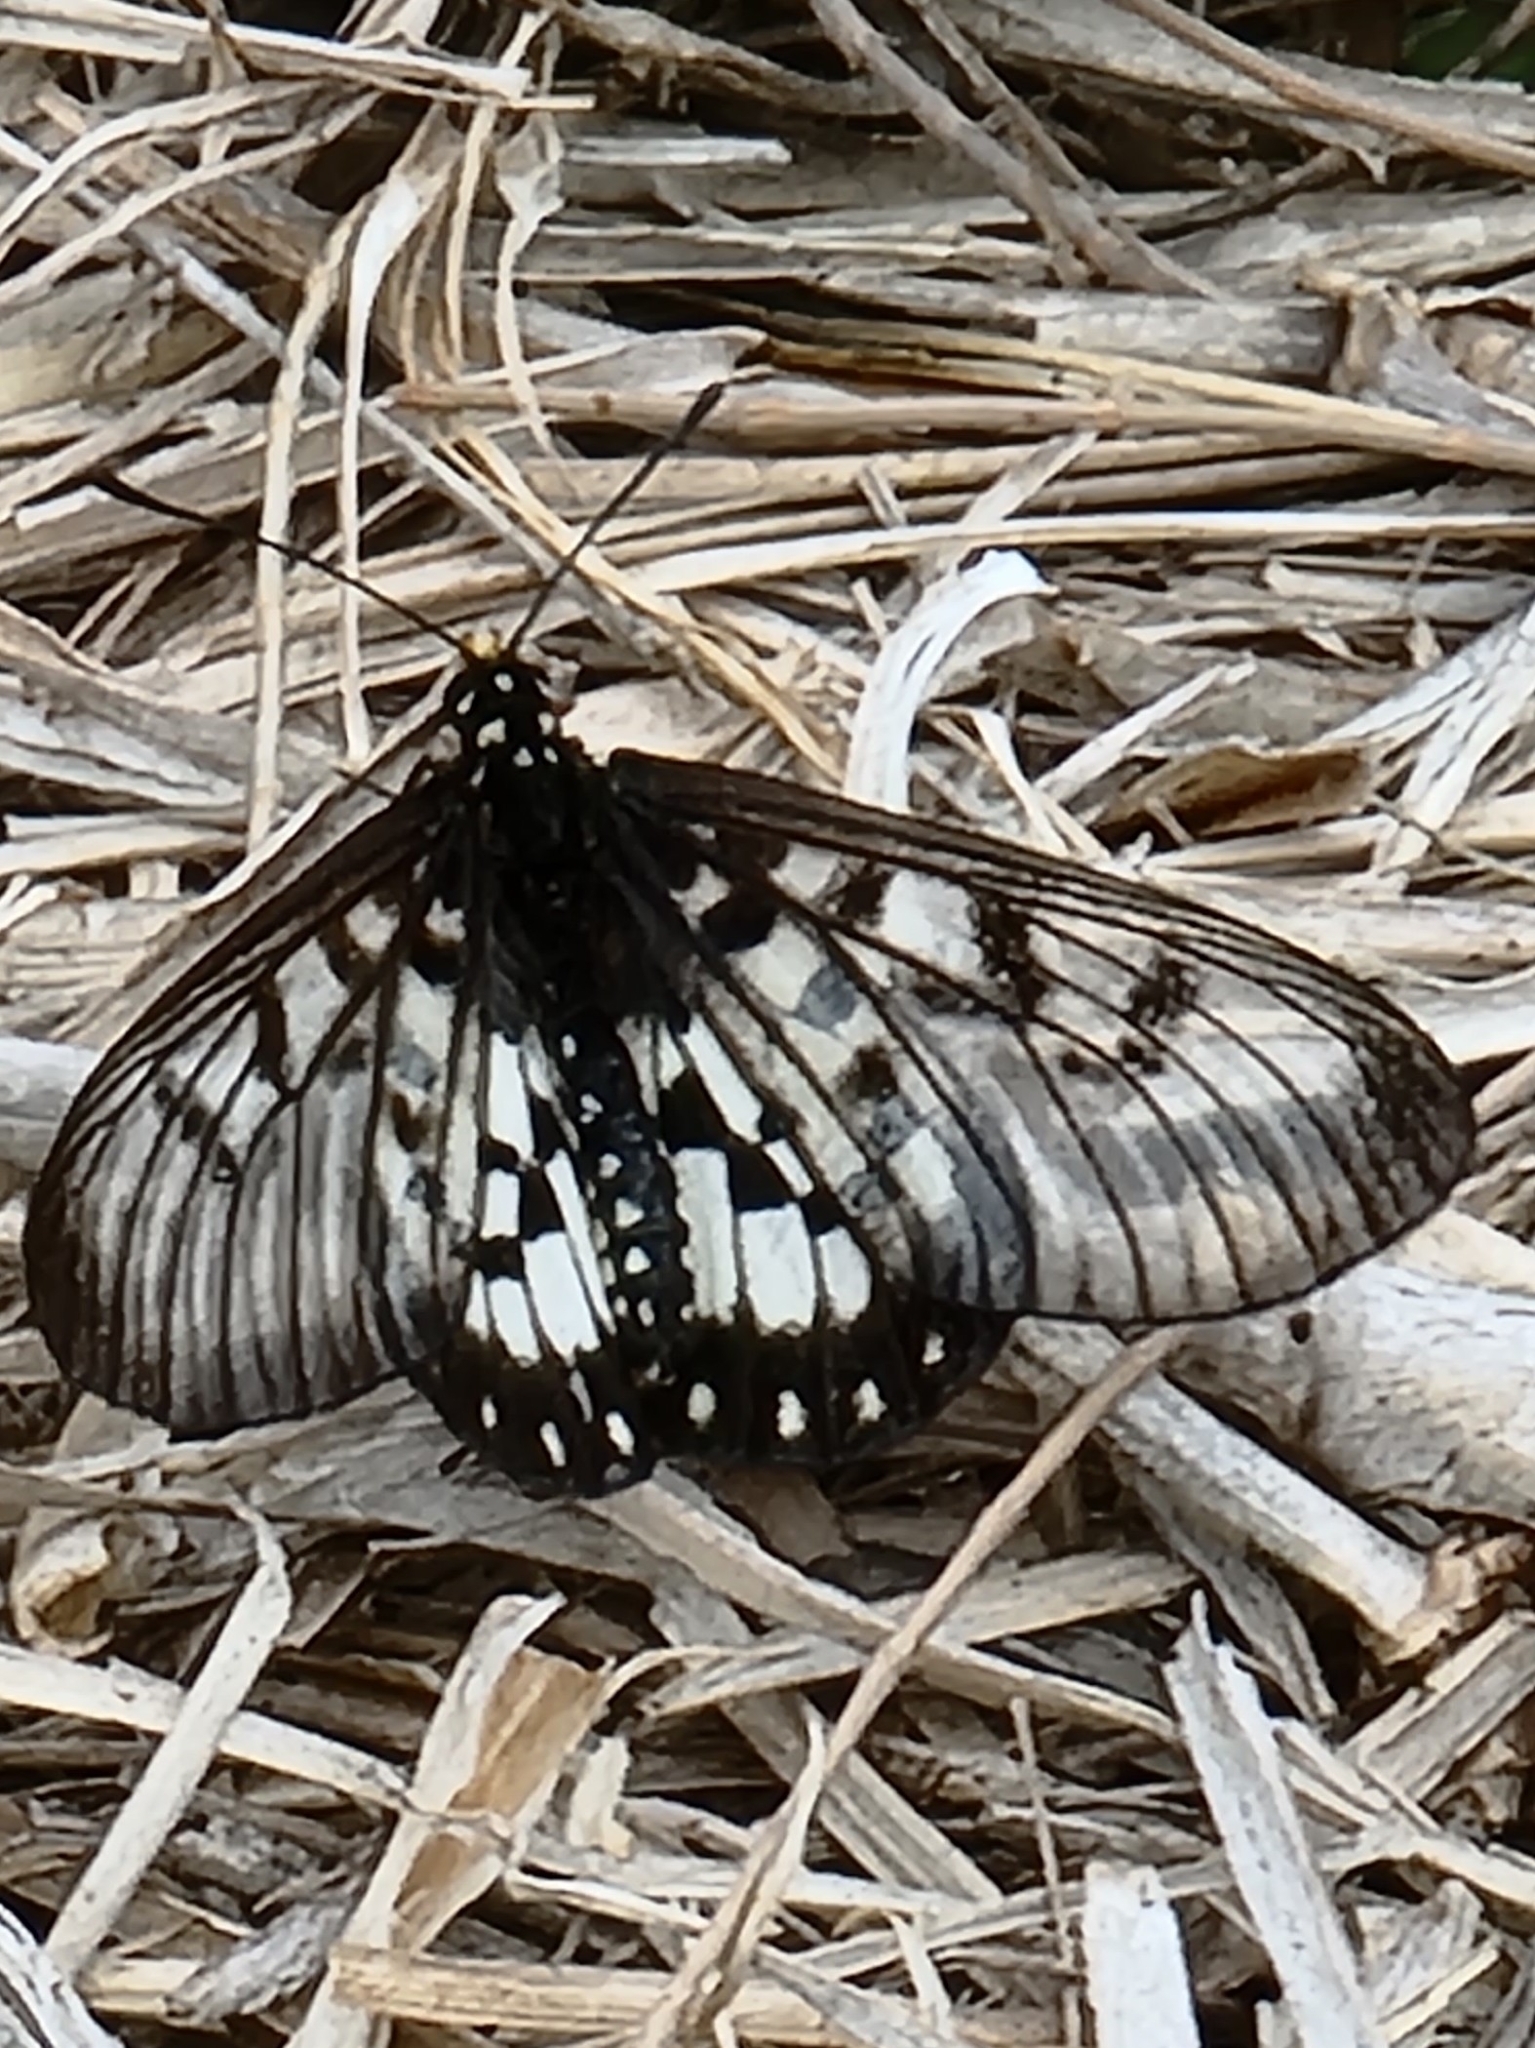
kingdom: Animalia
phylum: Arthropoda
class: Insecta
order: Lepidoptera
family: Nymphalidae
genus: Acraea
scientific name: Acraea andromacha
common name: Glasswing
